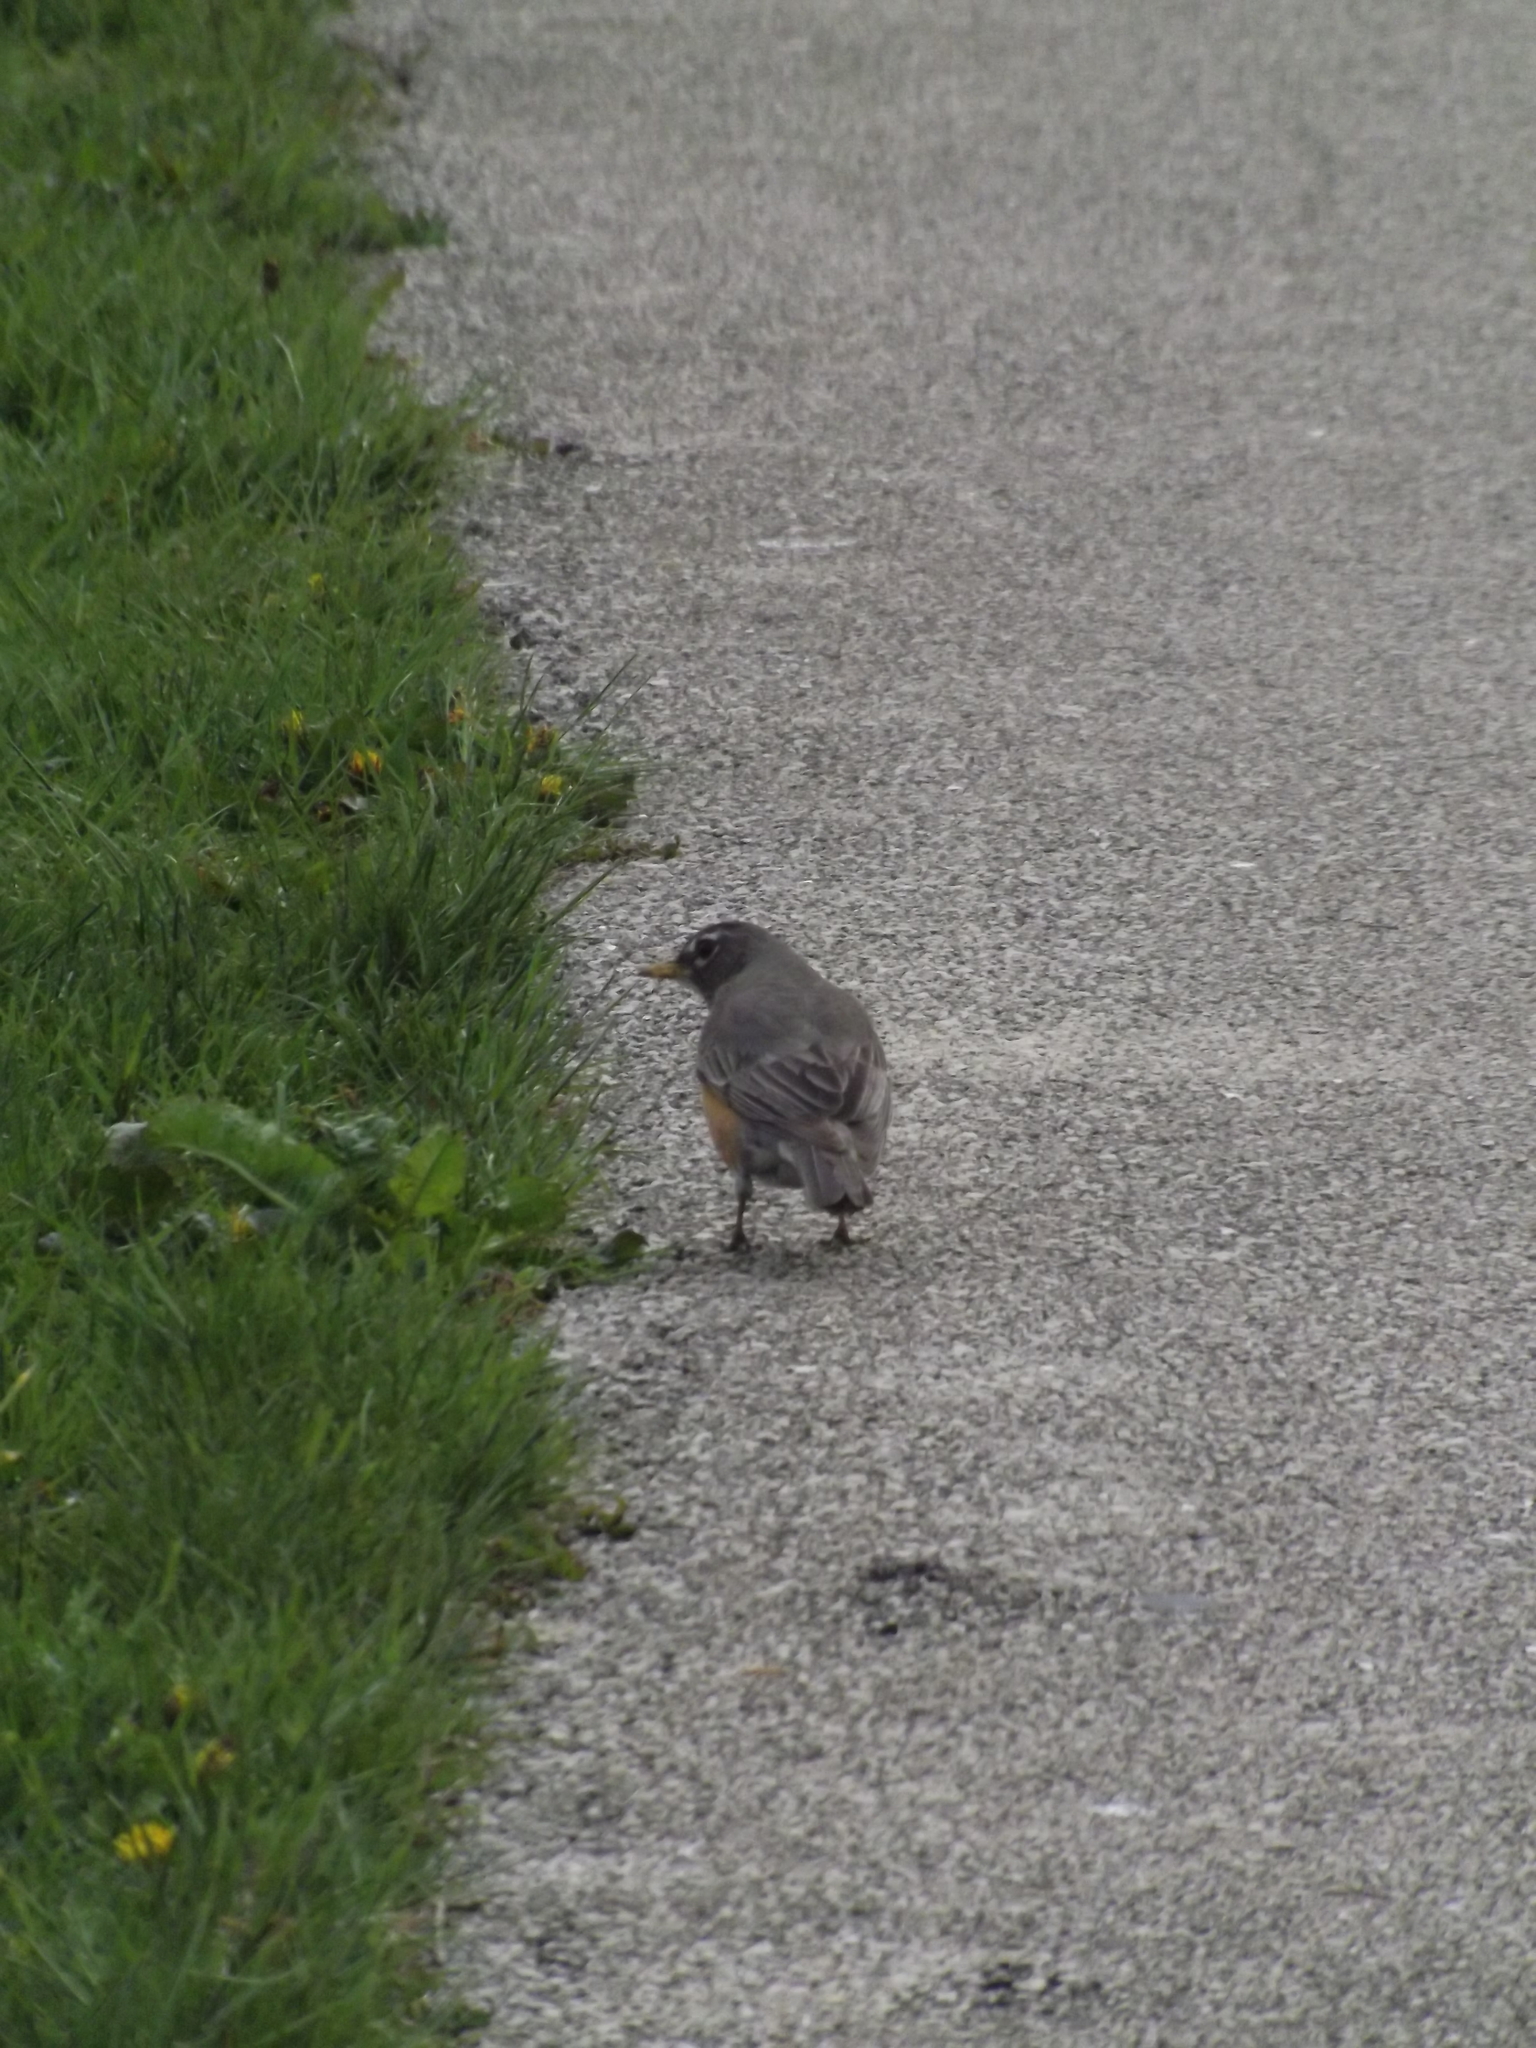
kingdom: Animalia
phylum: Chordata
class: Aves
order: Passeriformes
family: Turdidae
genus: Turdus
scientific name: Turdus migratorius
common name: American robin
